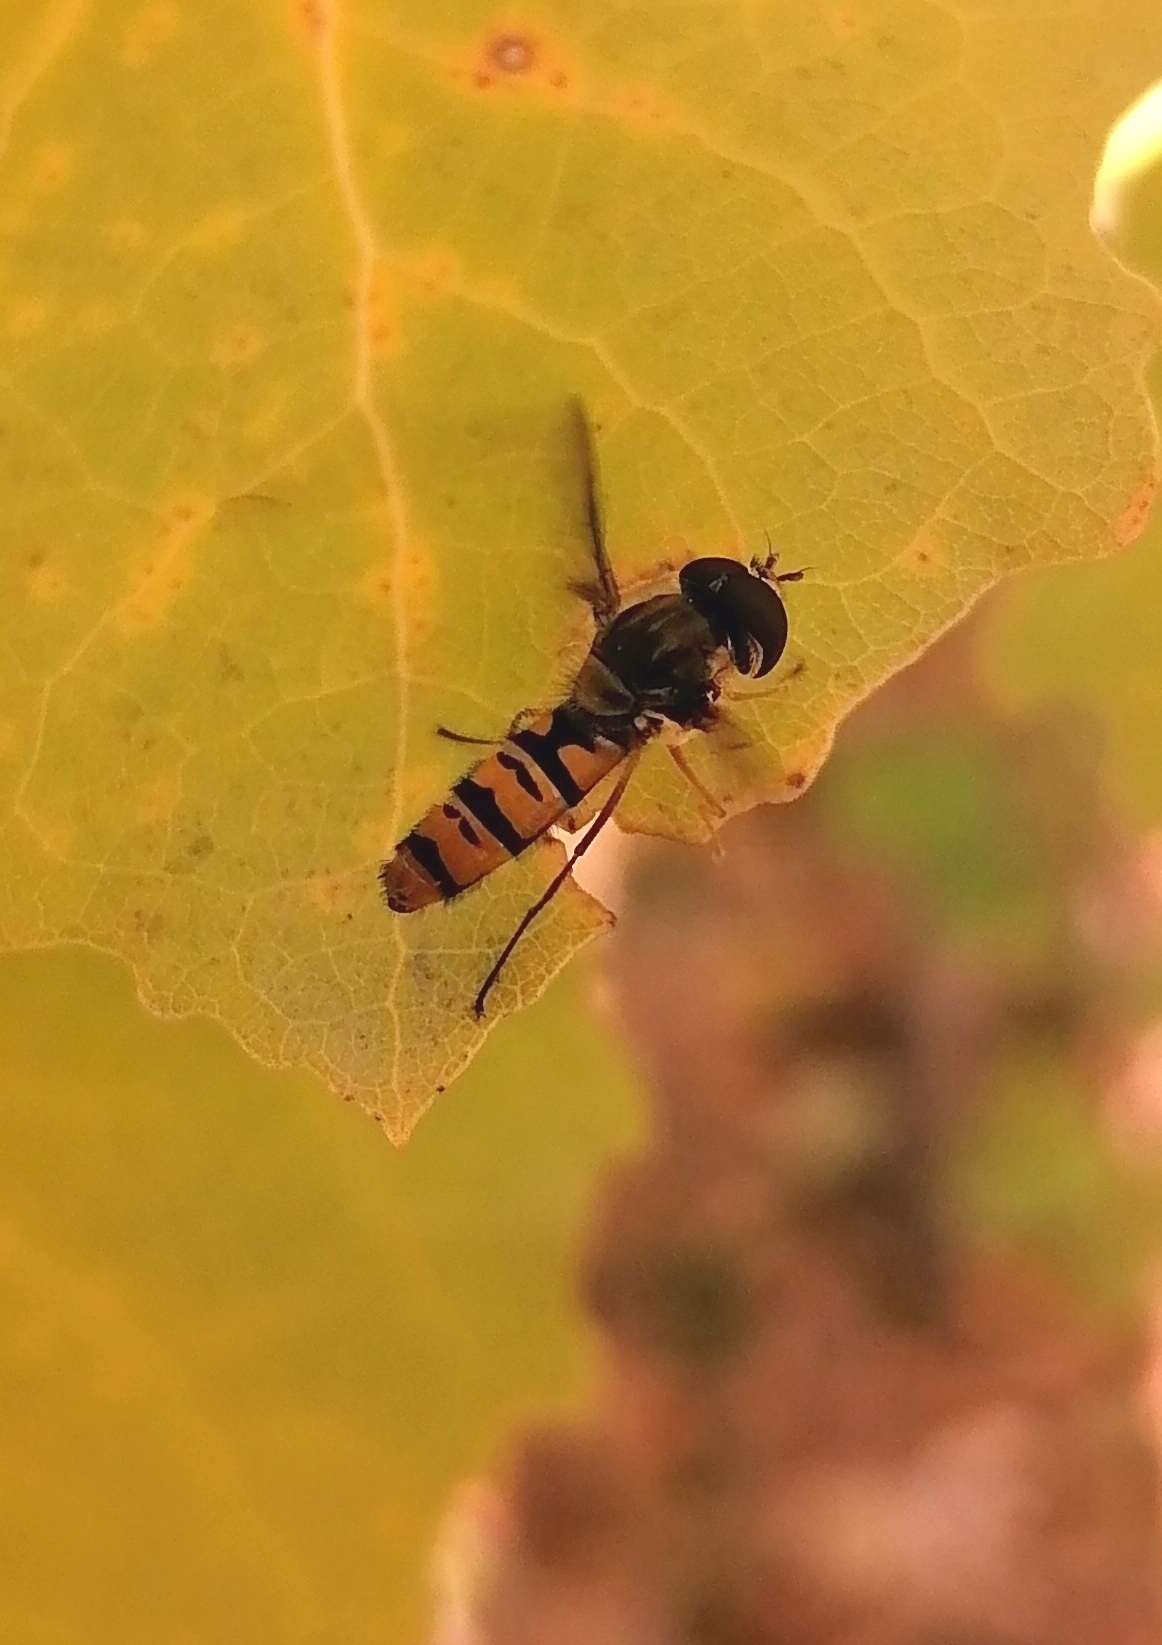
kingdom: Animalia
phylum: Arthropoda
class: Insecta
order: Diptera
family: Syrphidae
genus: Episyrphus
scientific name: Episyrphus balteatus
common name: Marmalade hoverfly
